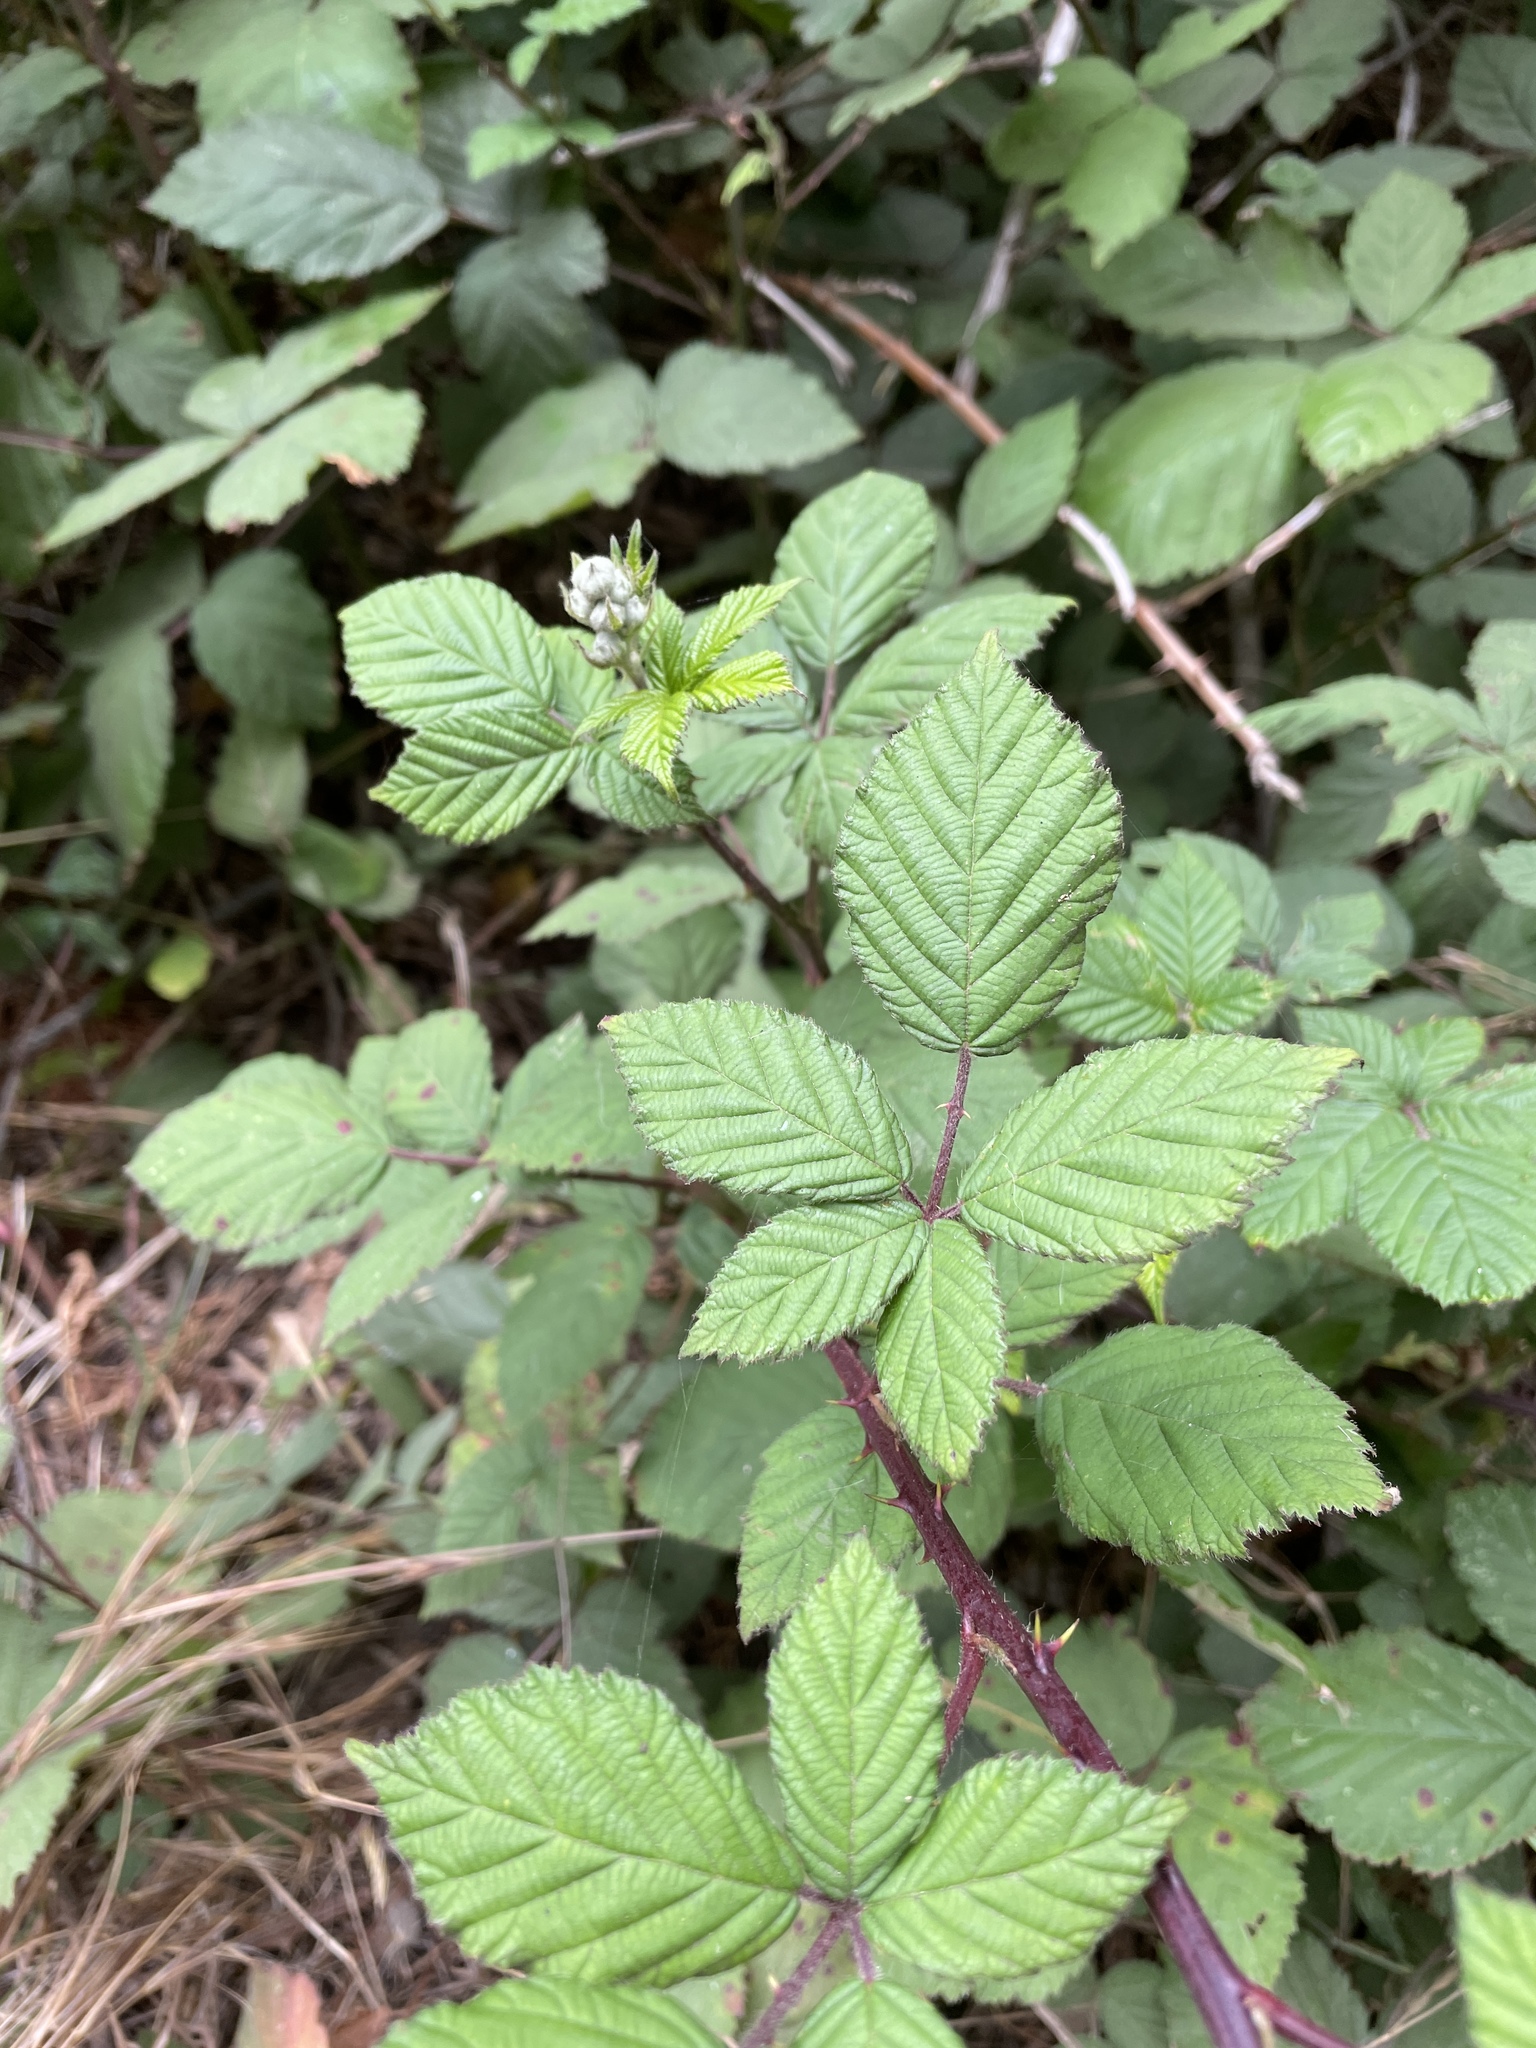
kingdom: Plantae
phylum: Tracheophyta
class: Magnoliopsida
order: Rosales
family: Rosaceae
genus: Rubus
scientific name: Rubus armeniacus
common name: Himalayan blackberry
